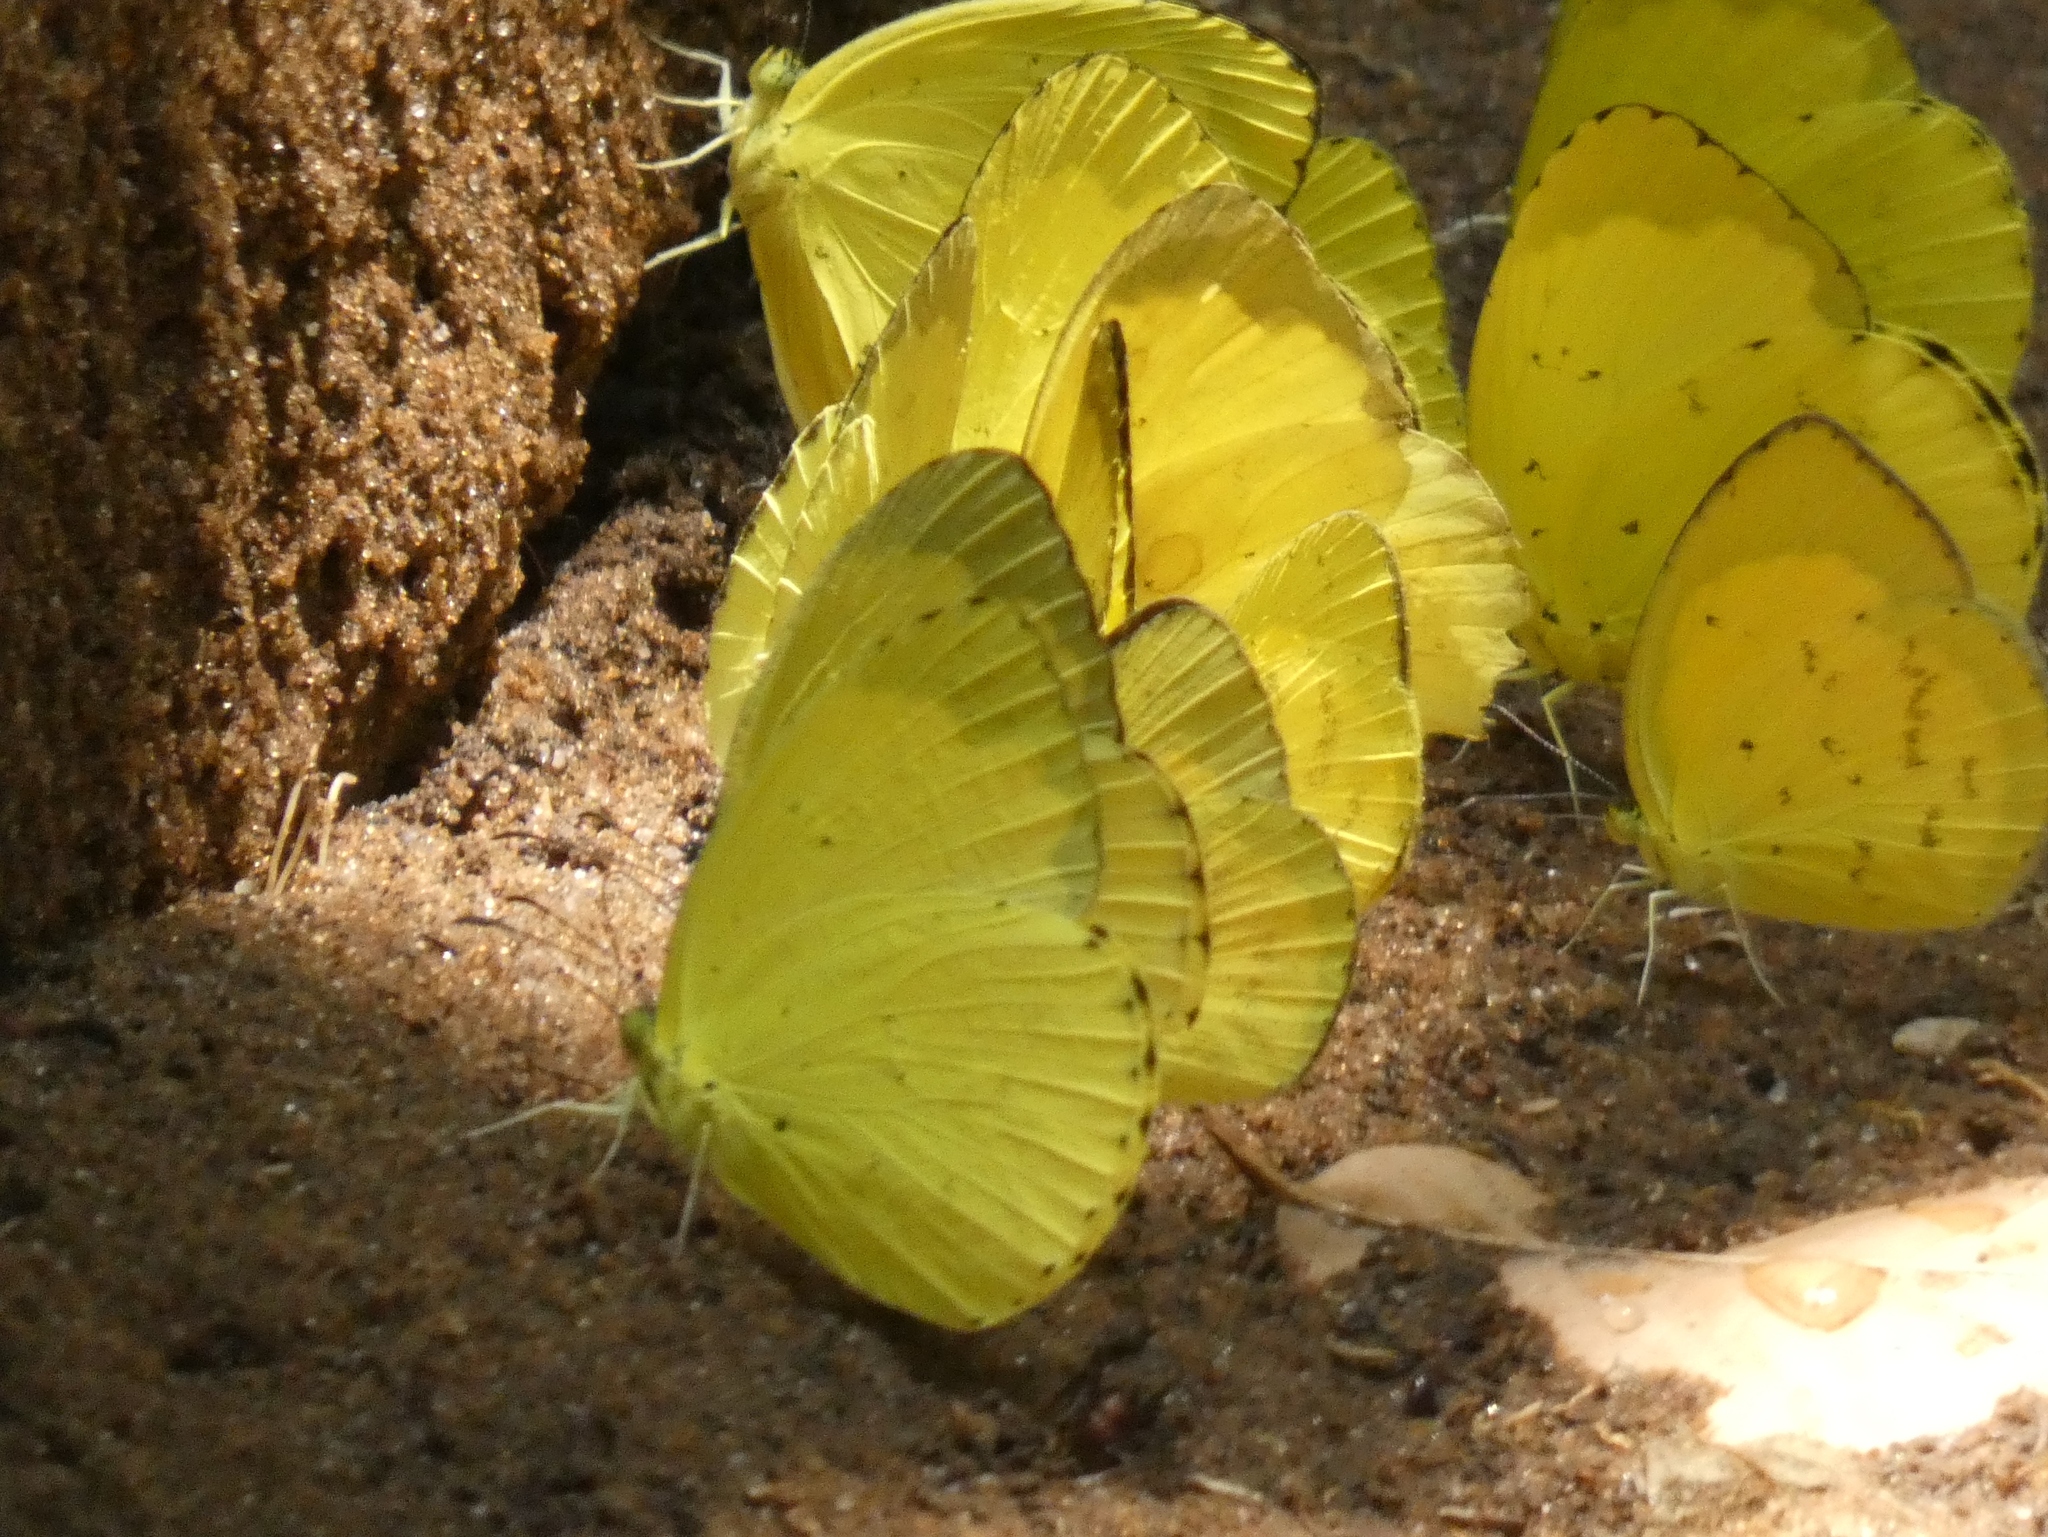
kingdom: Animalia
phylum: Arthropoda
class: Insecta
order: Lepidoptera
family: Pieridae
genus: Eurema
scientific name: Eurema senegalensis
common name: Forest grass yellow
